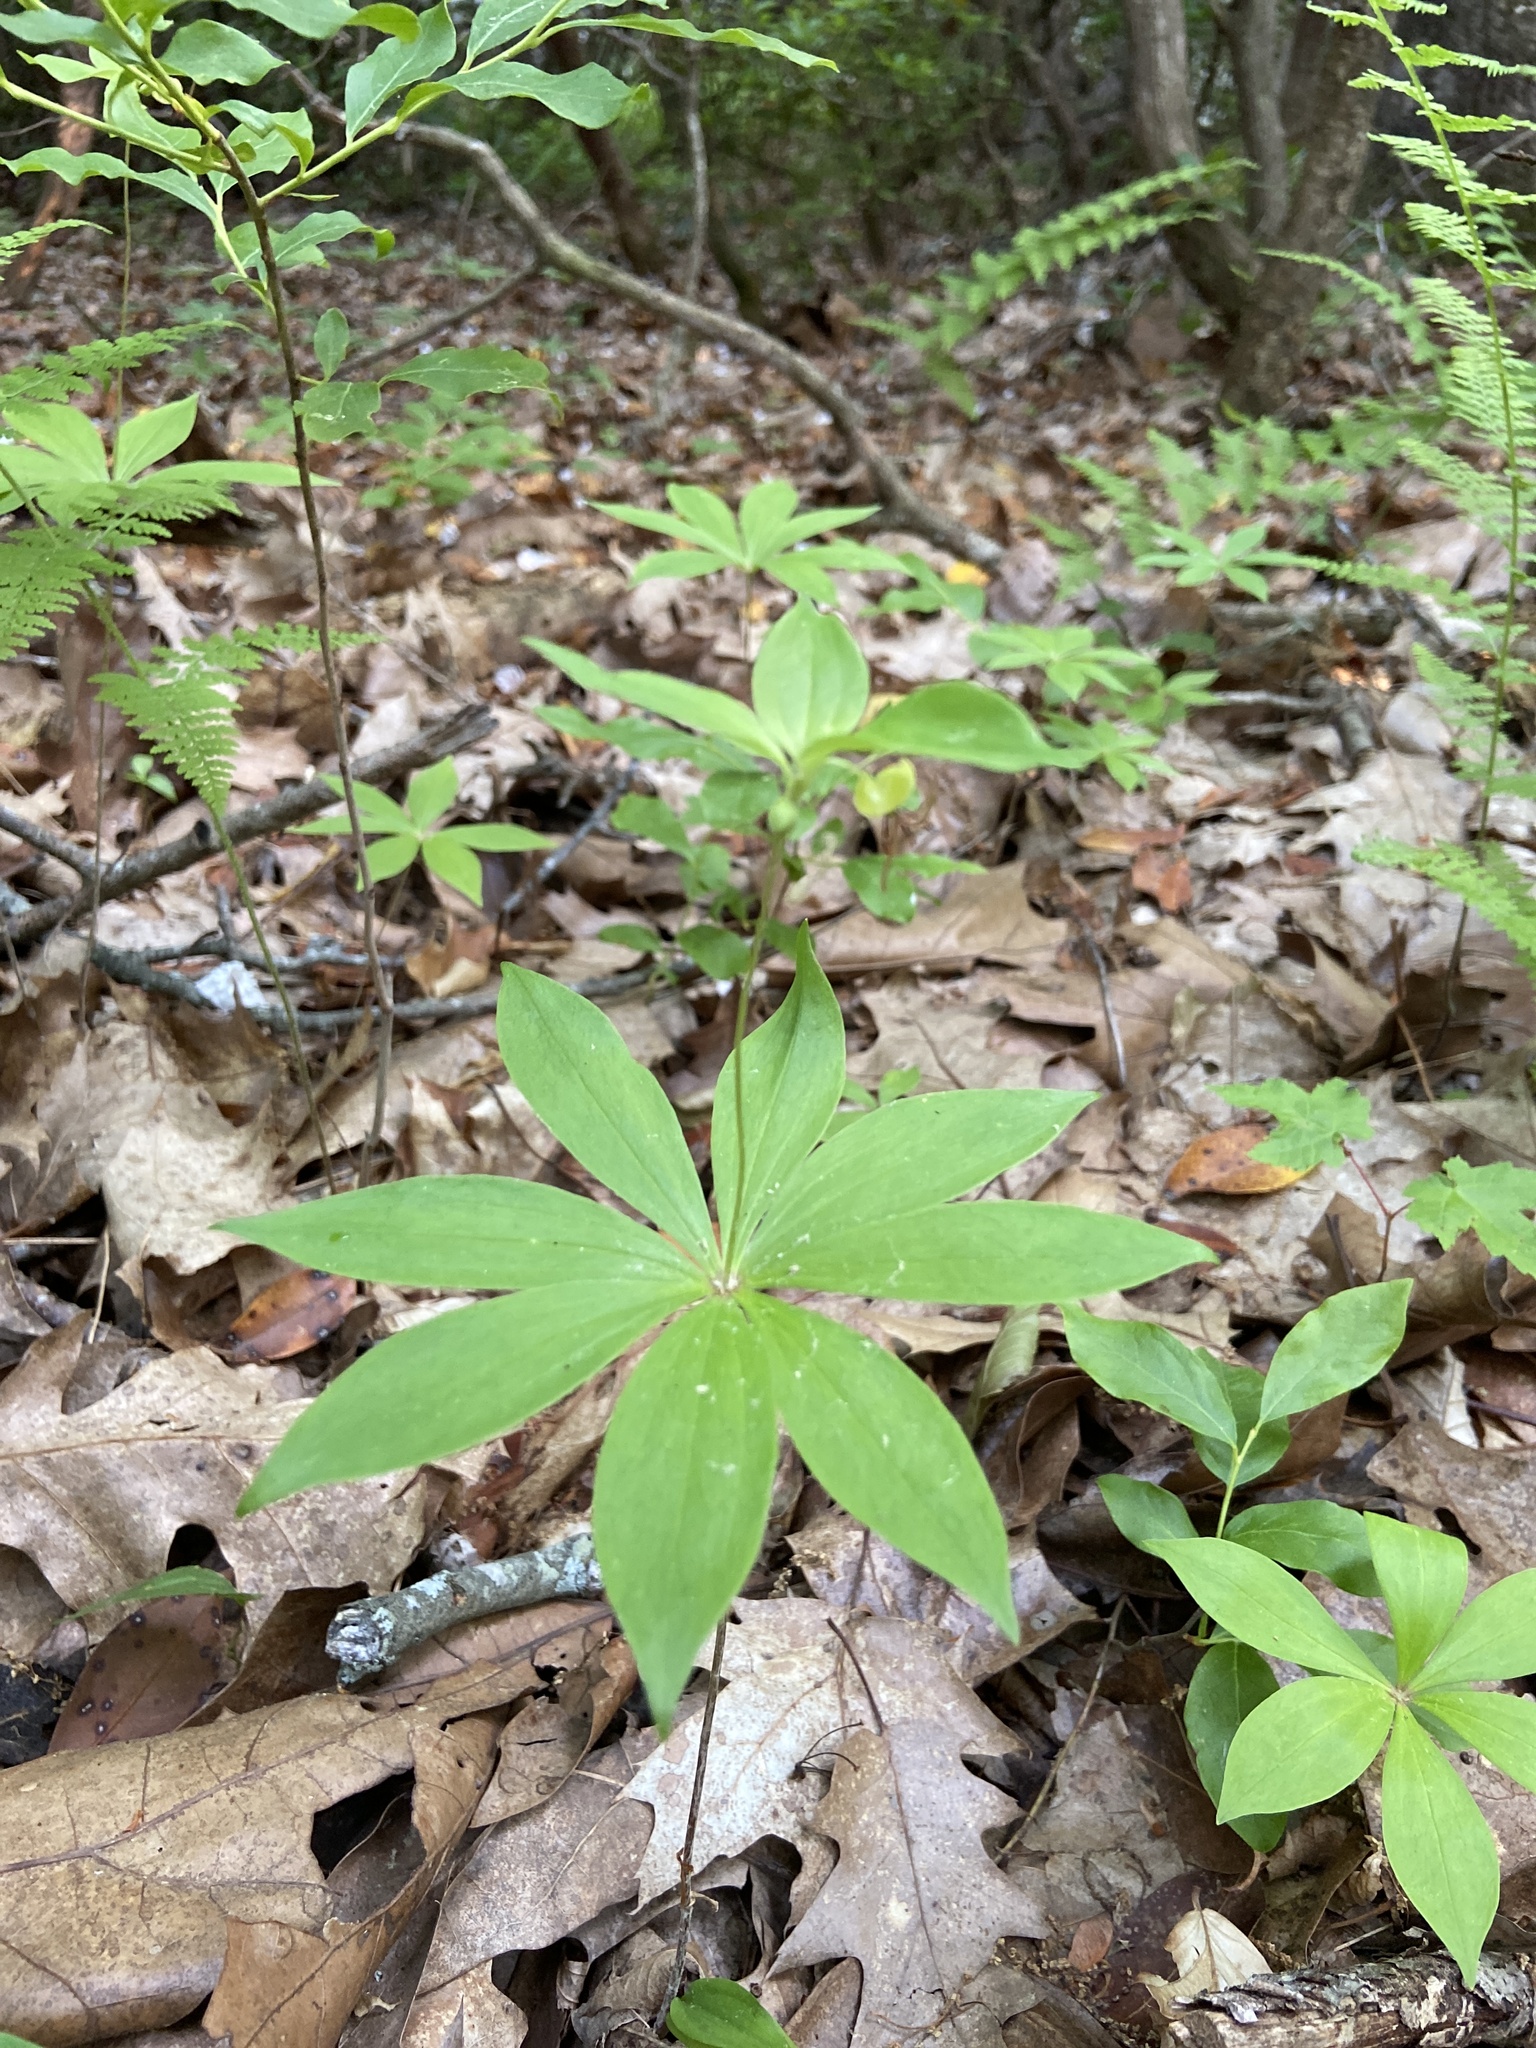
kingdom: Plantae
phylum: Tracheophyta
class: Liliopsida
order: Liliales
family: Liliaceae
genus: Medeola
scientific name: Medeola virginiana
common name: Indian cucumber-root
